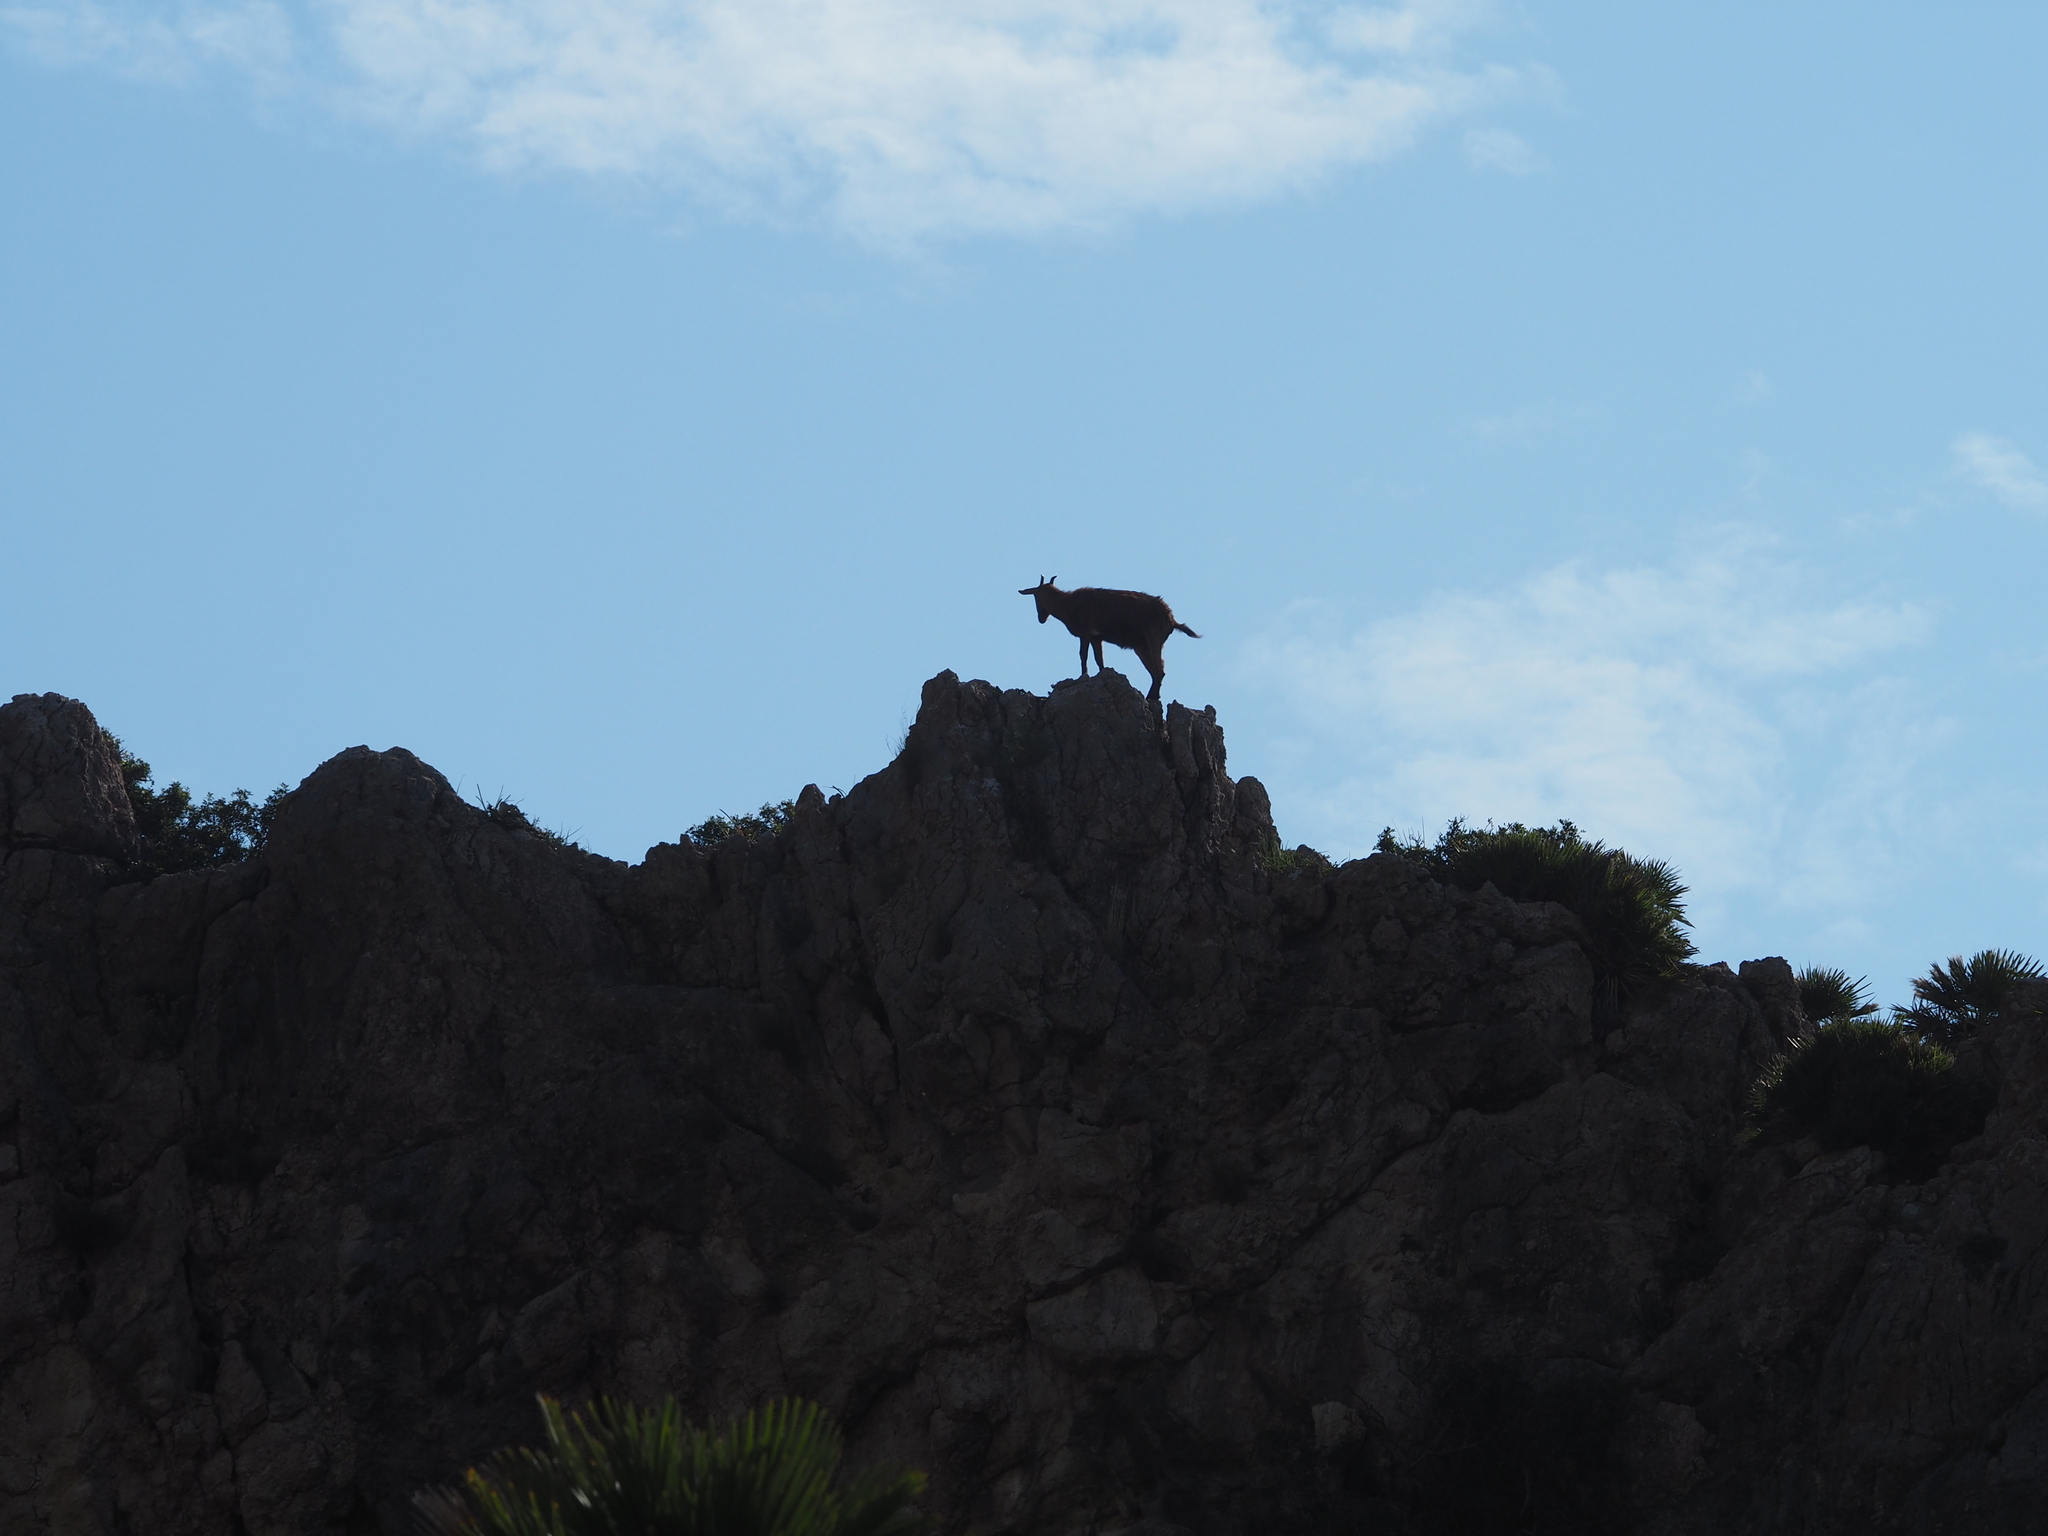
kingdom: Animalia
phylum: Chordata
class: Mammalia
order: Artiodactyla
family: Bovidae
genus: Capra
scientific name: Capra hircus
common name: Domestic goat
